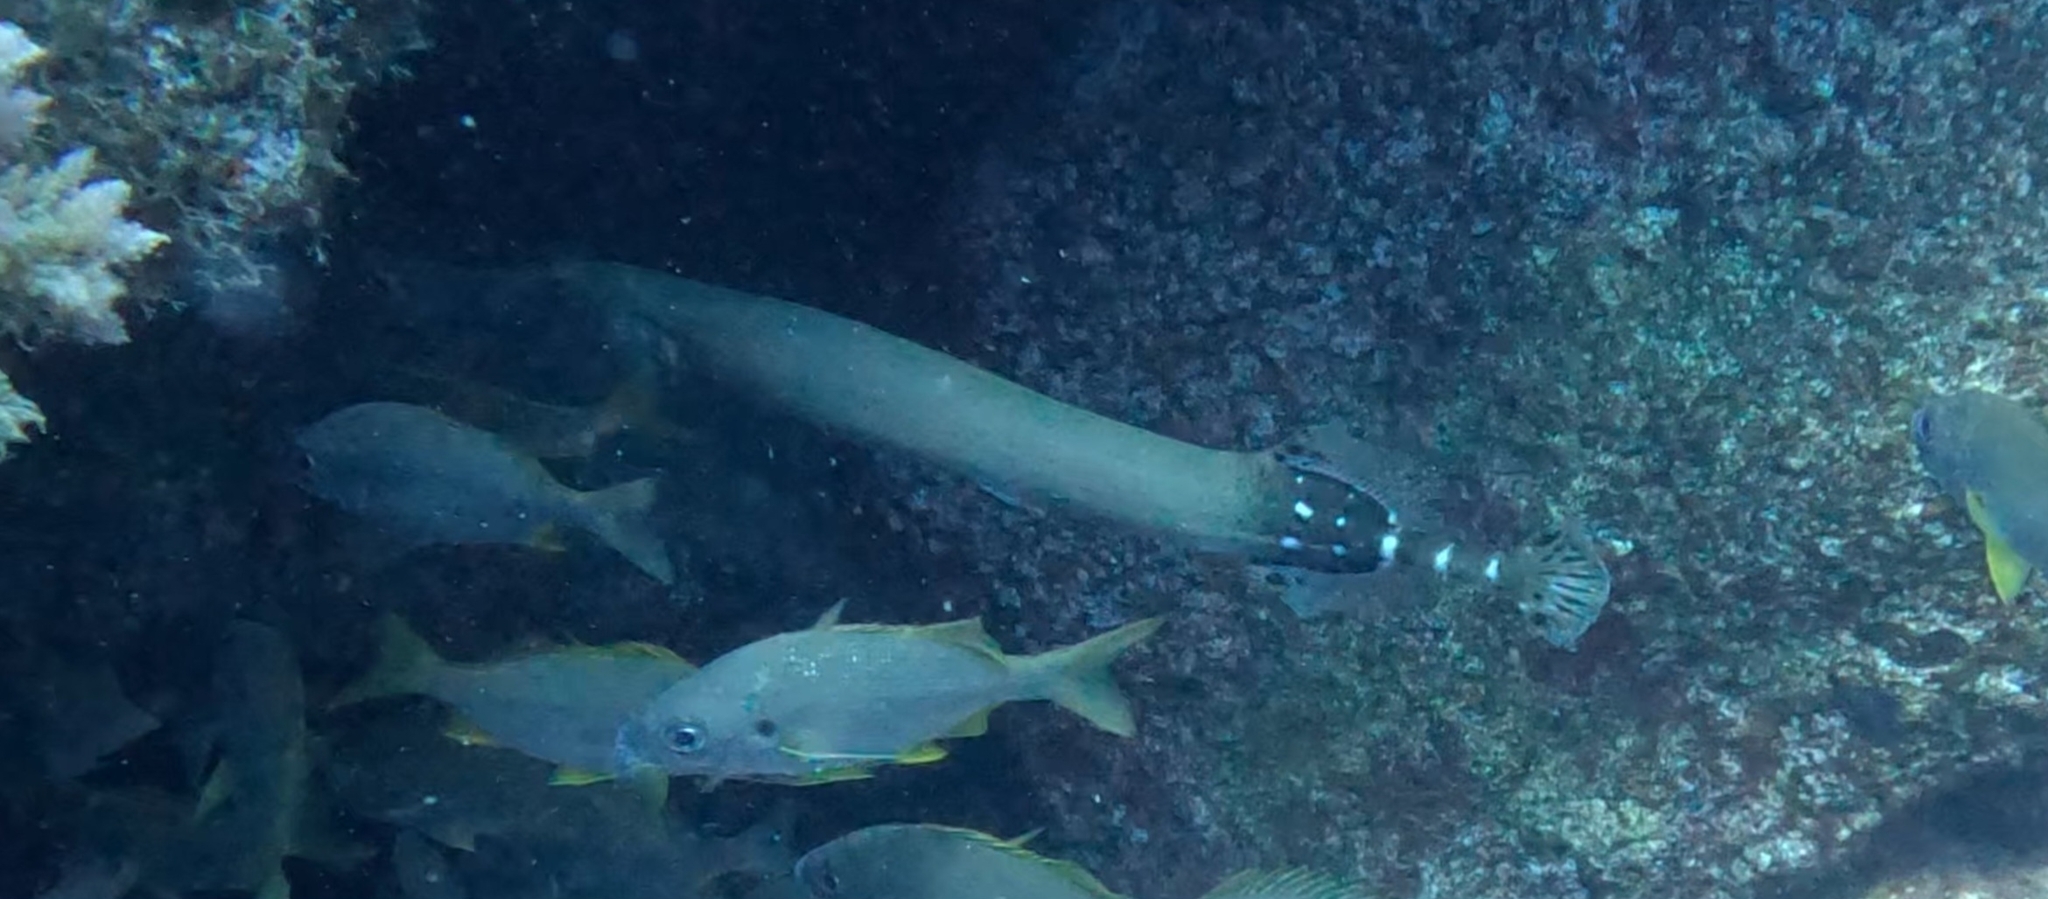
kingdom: Animalia
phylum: Chordata
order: Syngnathiformes
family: Aulostomidae
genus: Aulostomus
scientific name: Aulostomus strigosus
